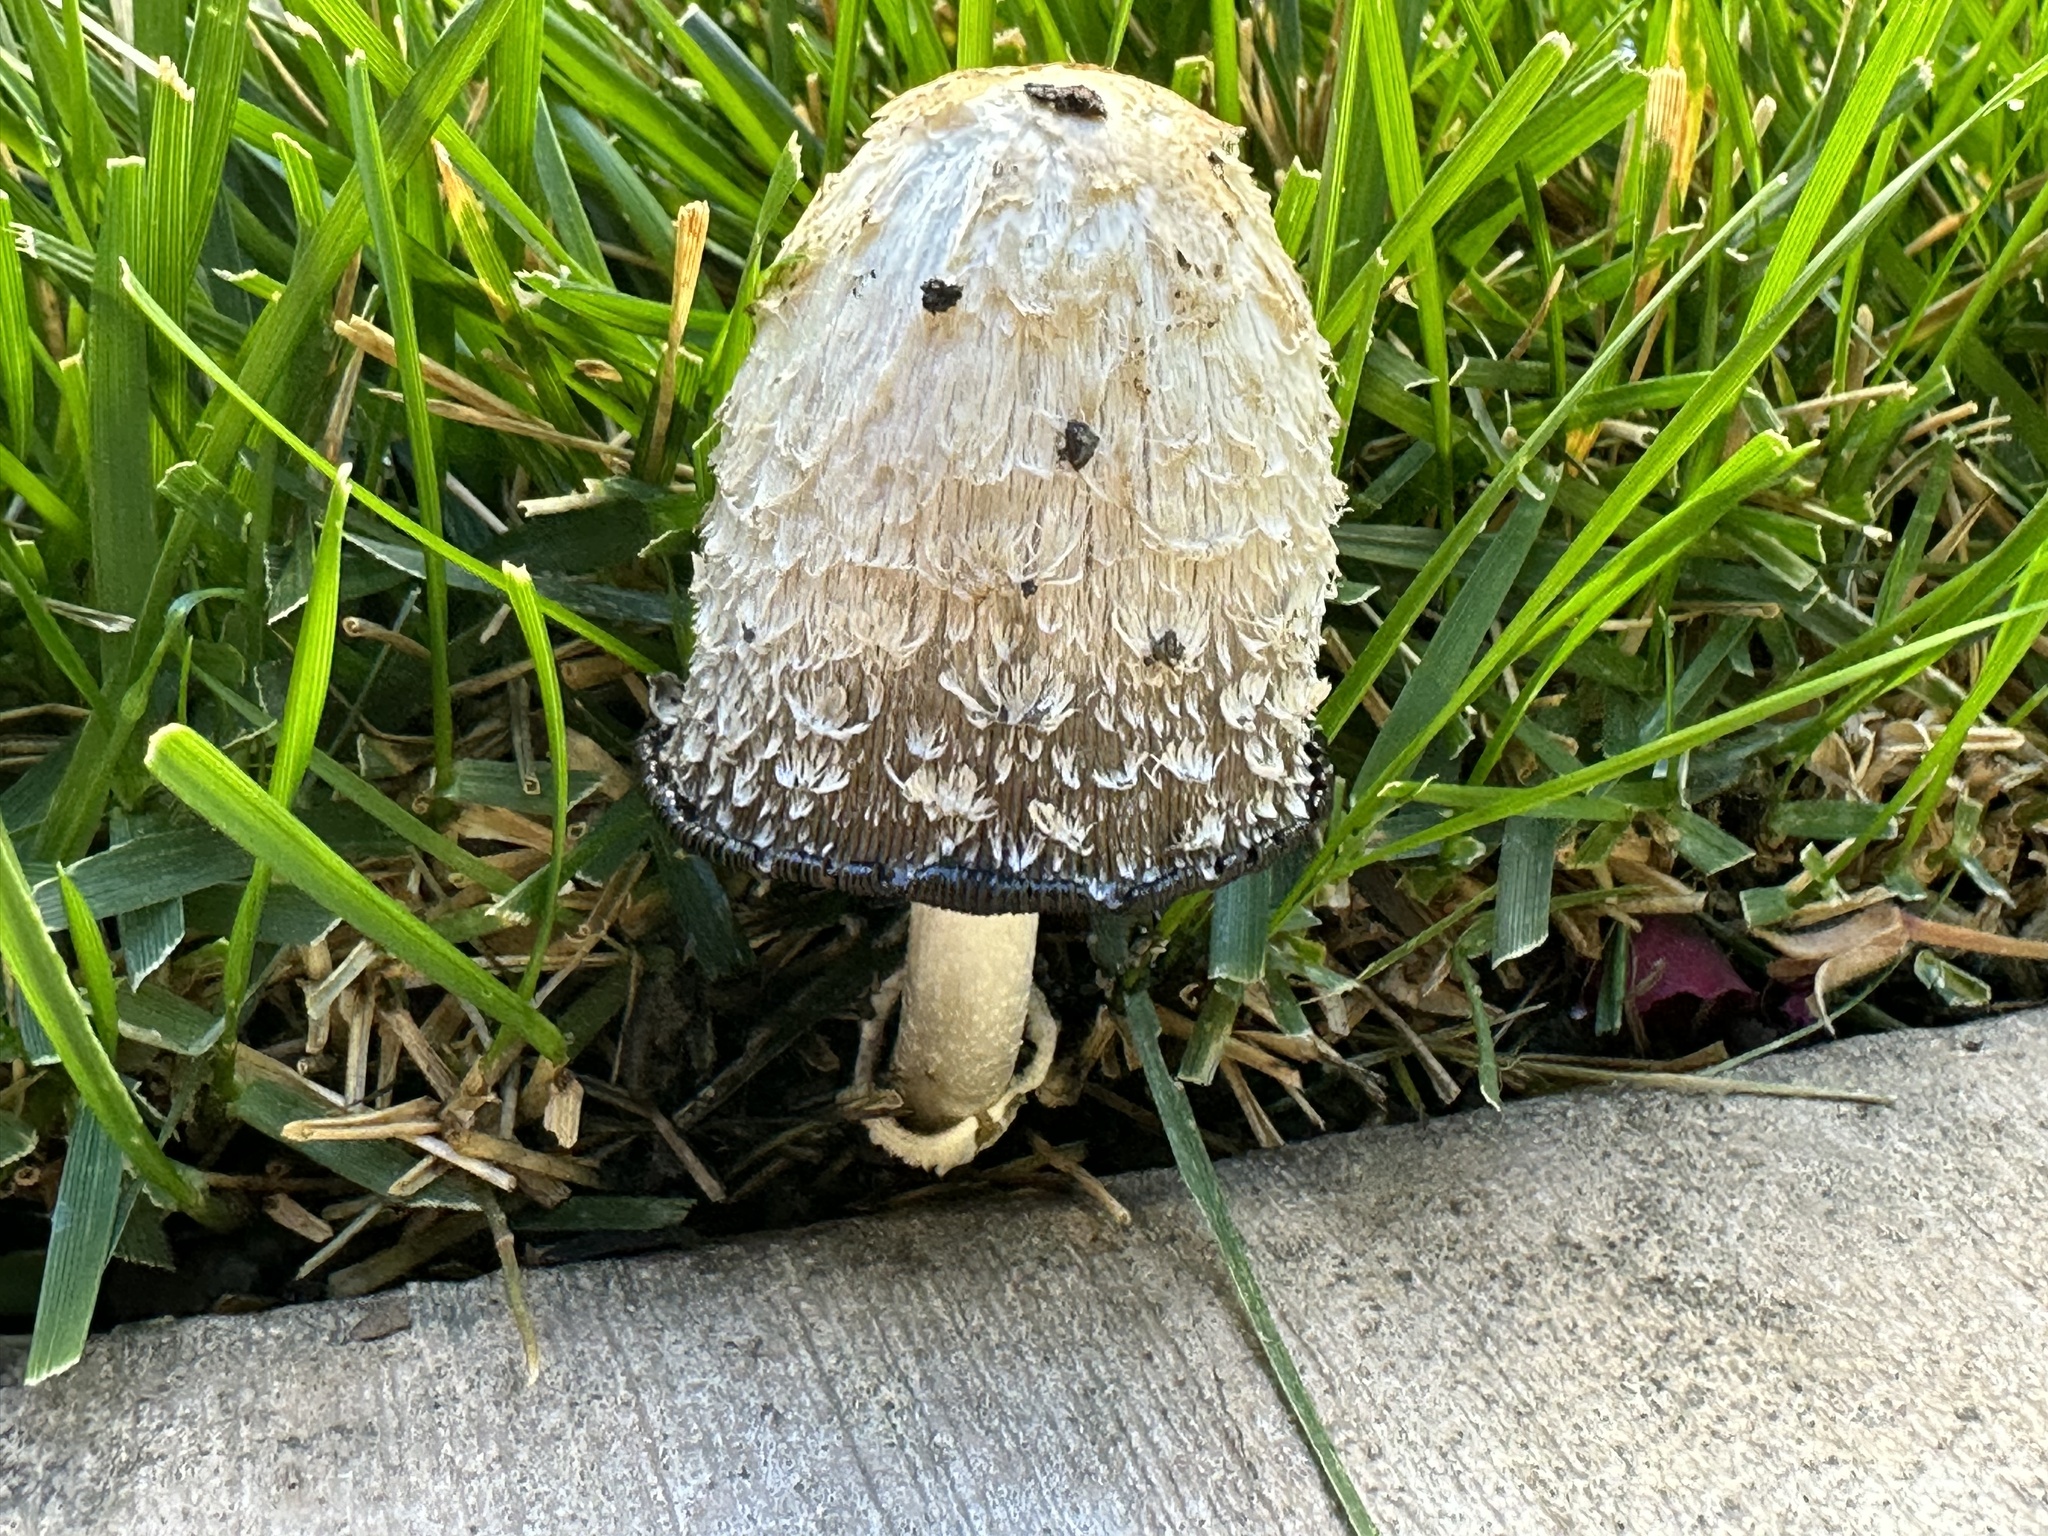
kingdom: Fungi
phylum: Basidiomycota
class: Agaricomycetes
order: Agaricales
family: Agaricaceae
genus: Coprinus
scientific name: Coprinus comatus
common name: Lawyer's wig
